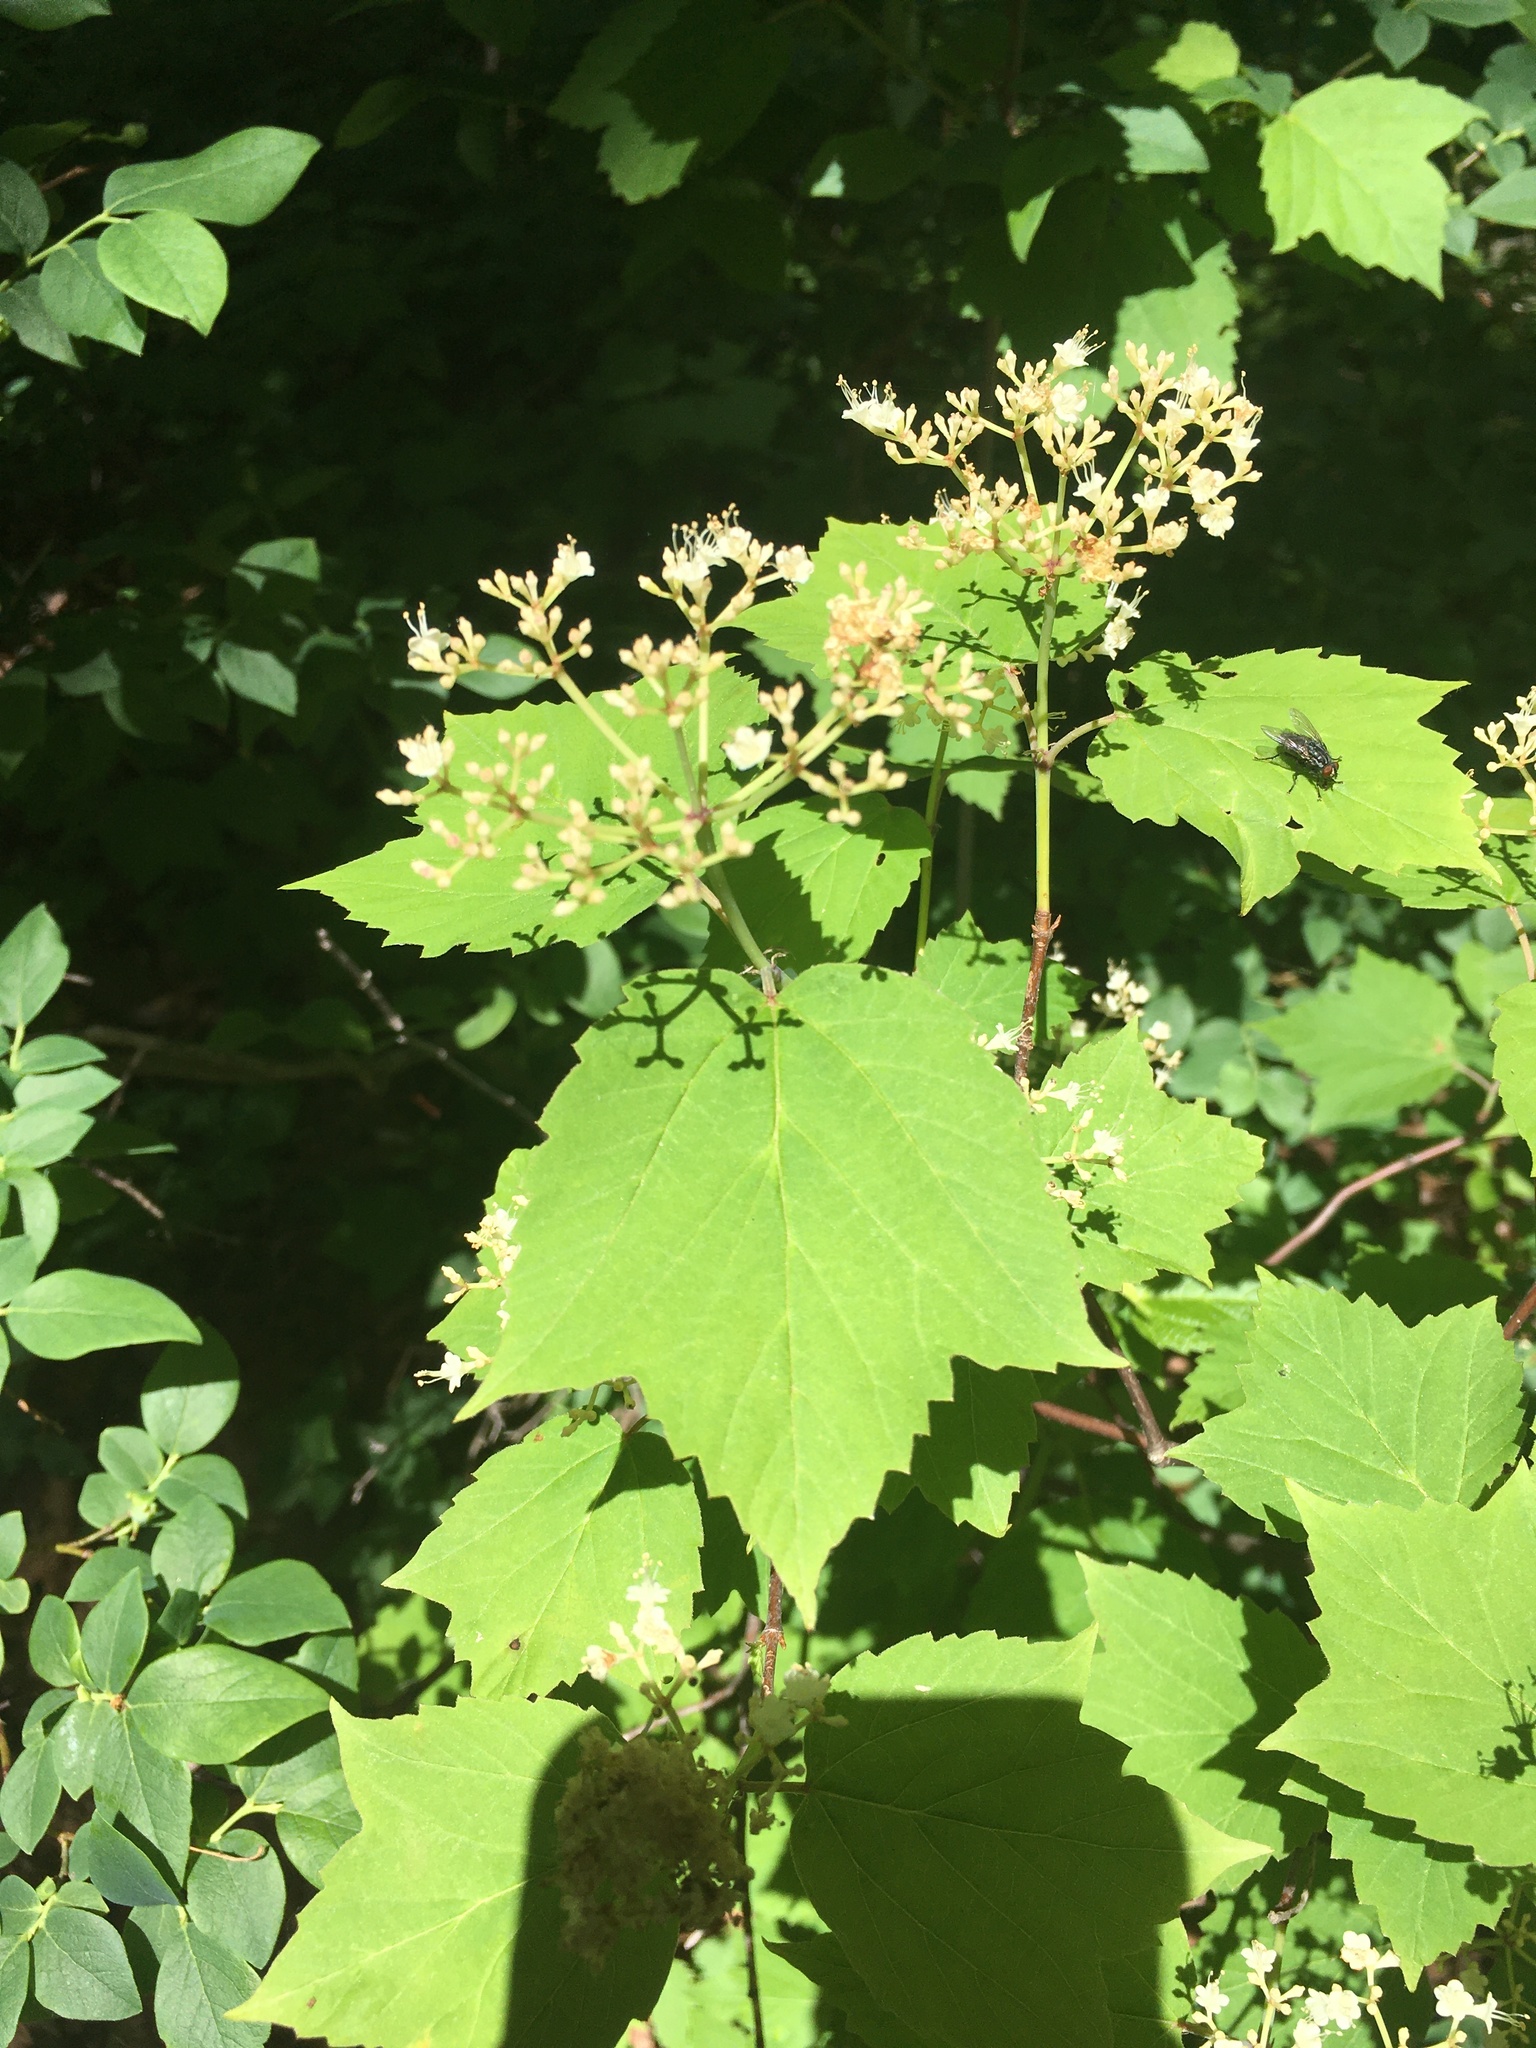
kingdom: Plantae
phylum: Tracheophyta
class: Magnoliopsida
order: Dipsacales
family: Viburnaceae
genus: Viburnum
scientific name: Viburnum acerifolium
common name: Dockmackie
